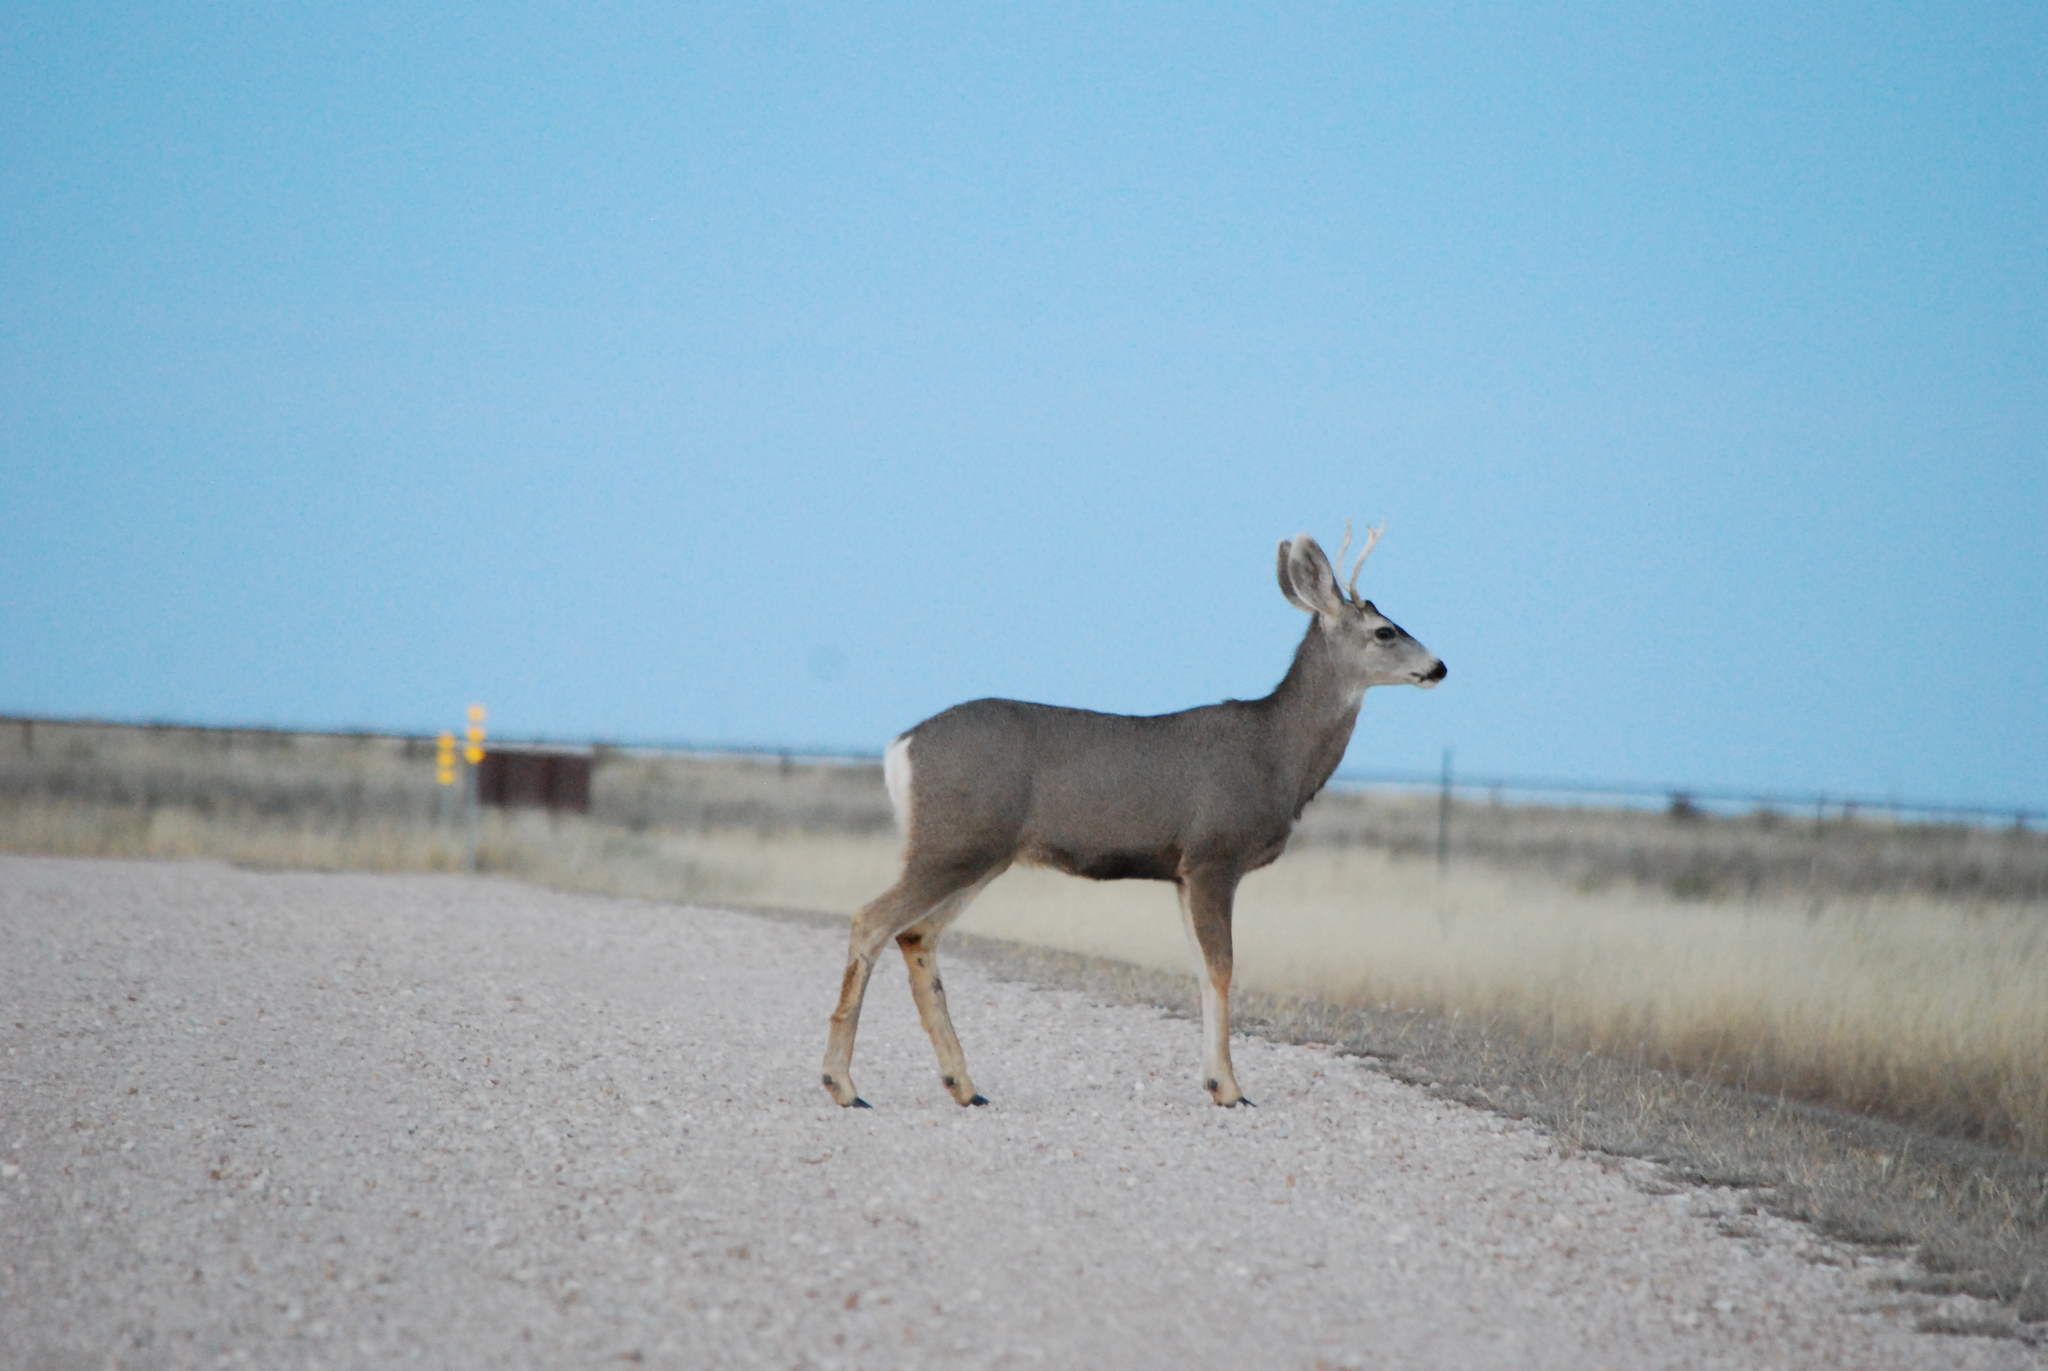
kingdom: Animalia
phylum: Chordata
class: Mammalia
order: Artiodactyla
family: Cervidae
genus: Odocoileus
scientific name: Odocoileus hemionus
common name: Mule deer
